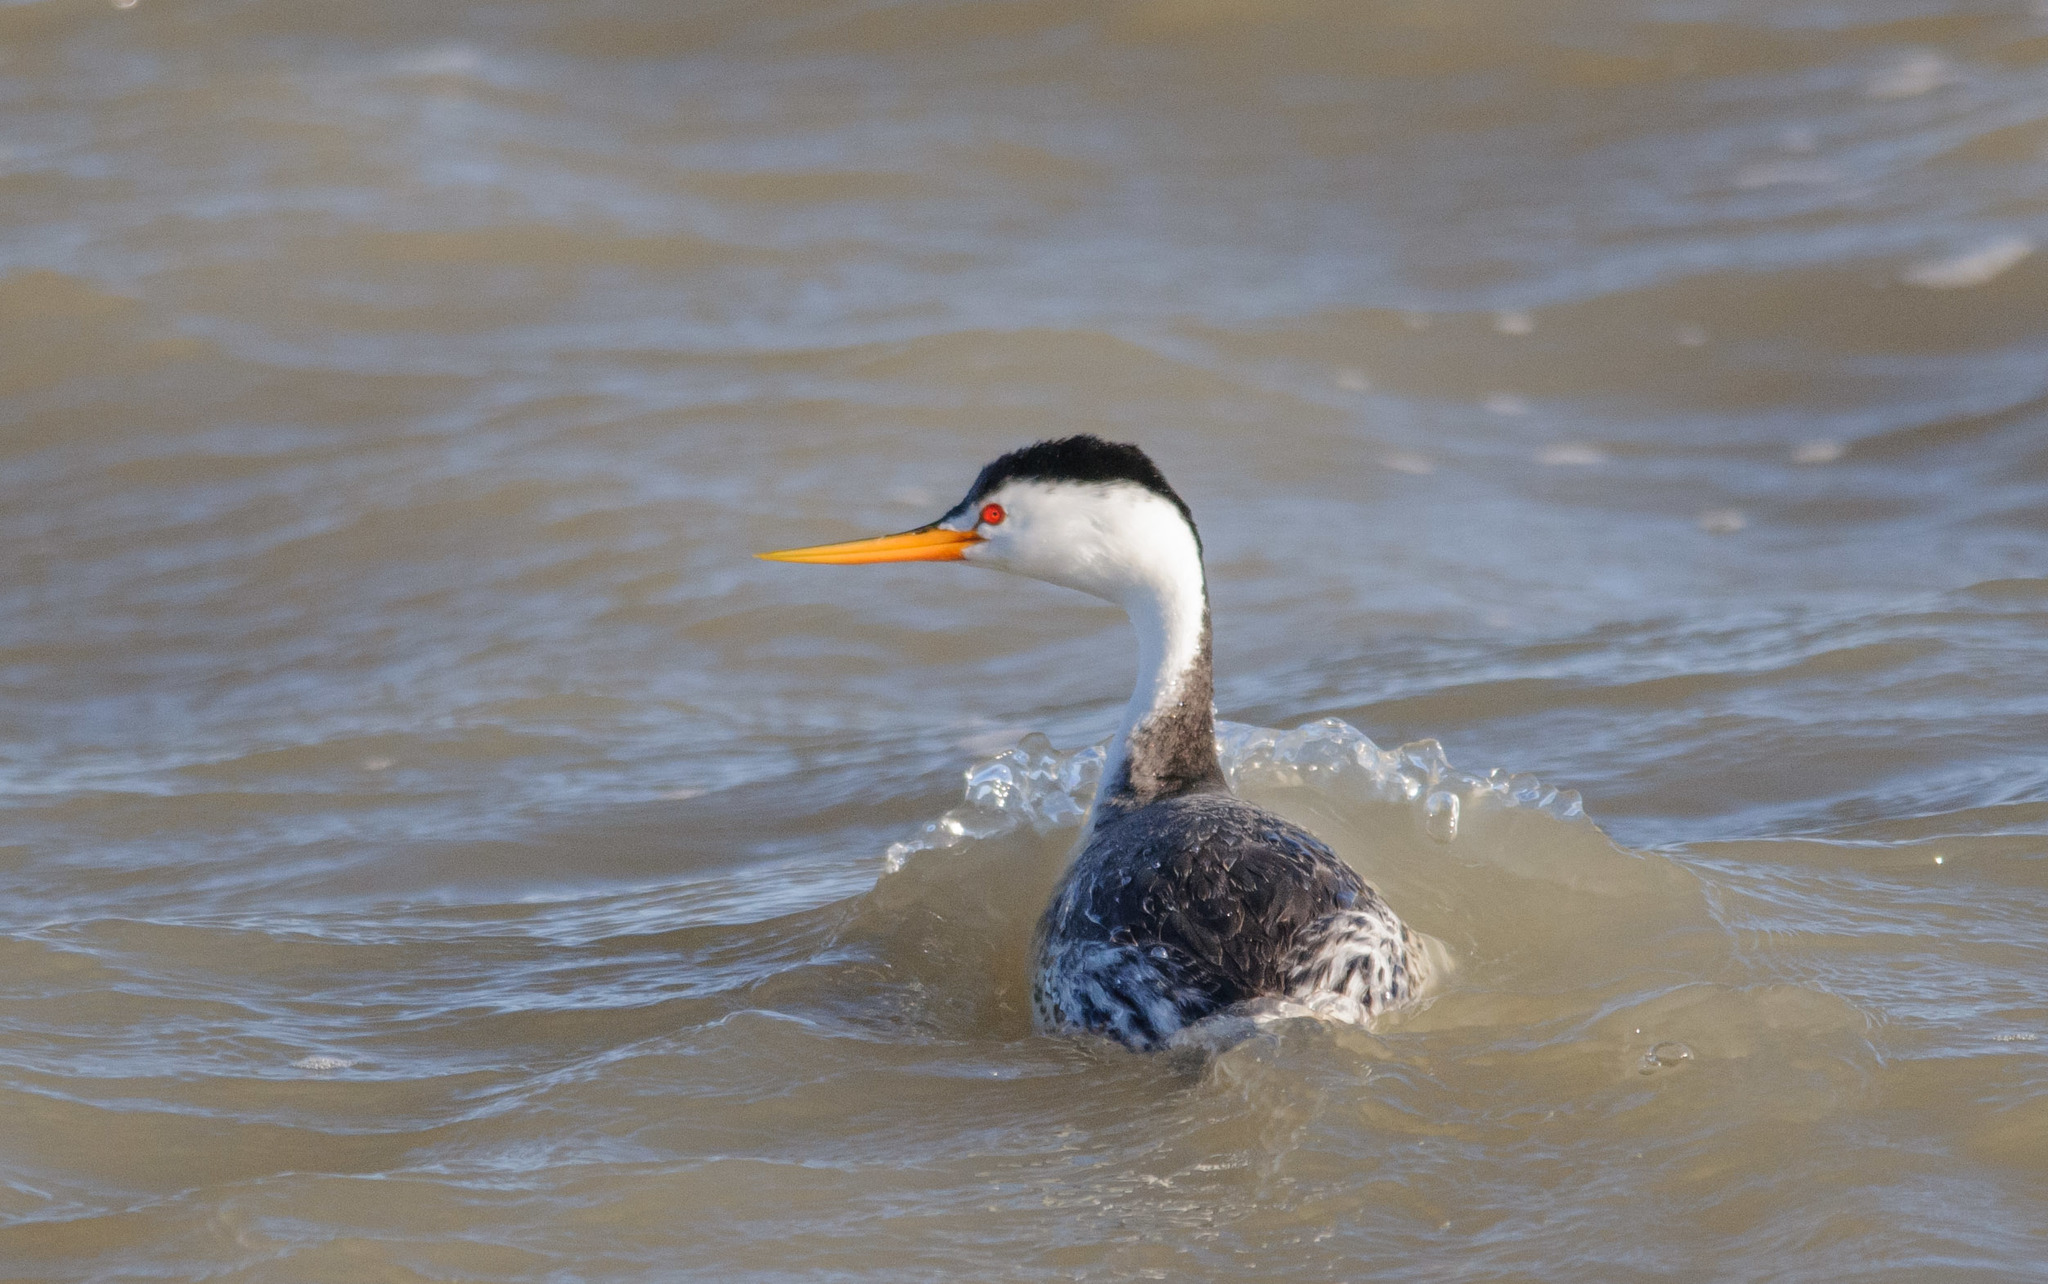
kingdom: Animalia
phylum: Chordata
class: Aves
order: Podicipediformes
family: Podicipedidae
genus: Aechmophorus
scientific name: Aechmophorus clarkii
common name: Clark's grebe
